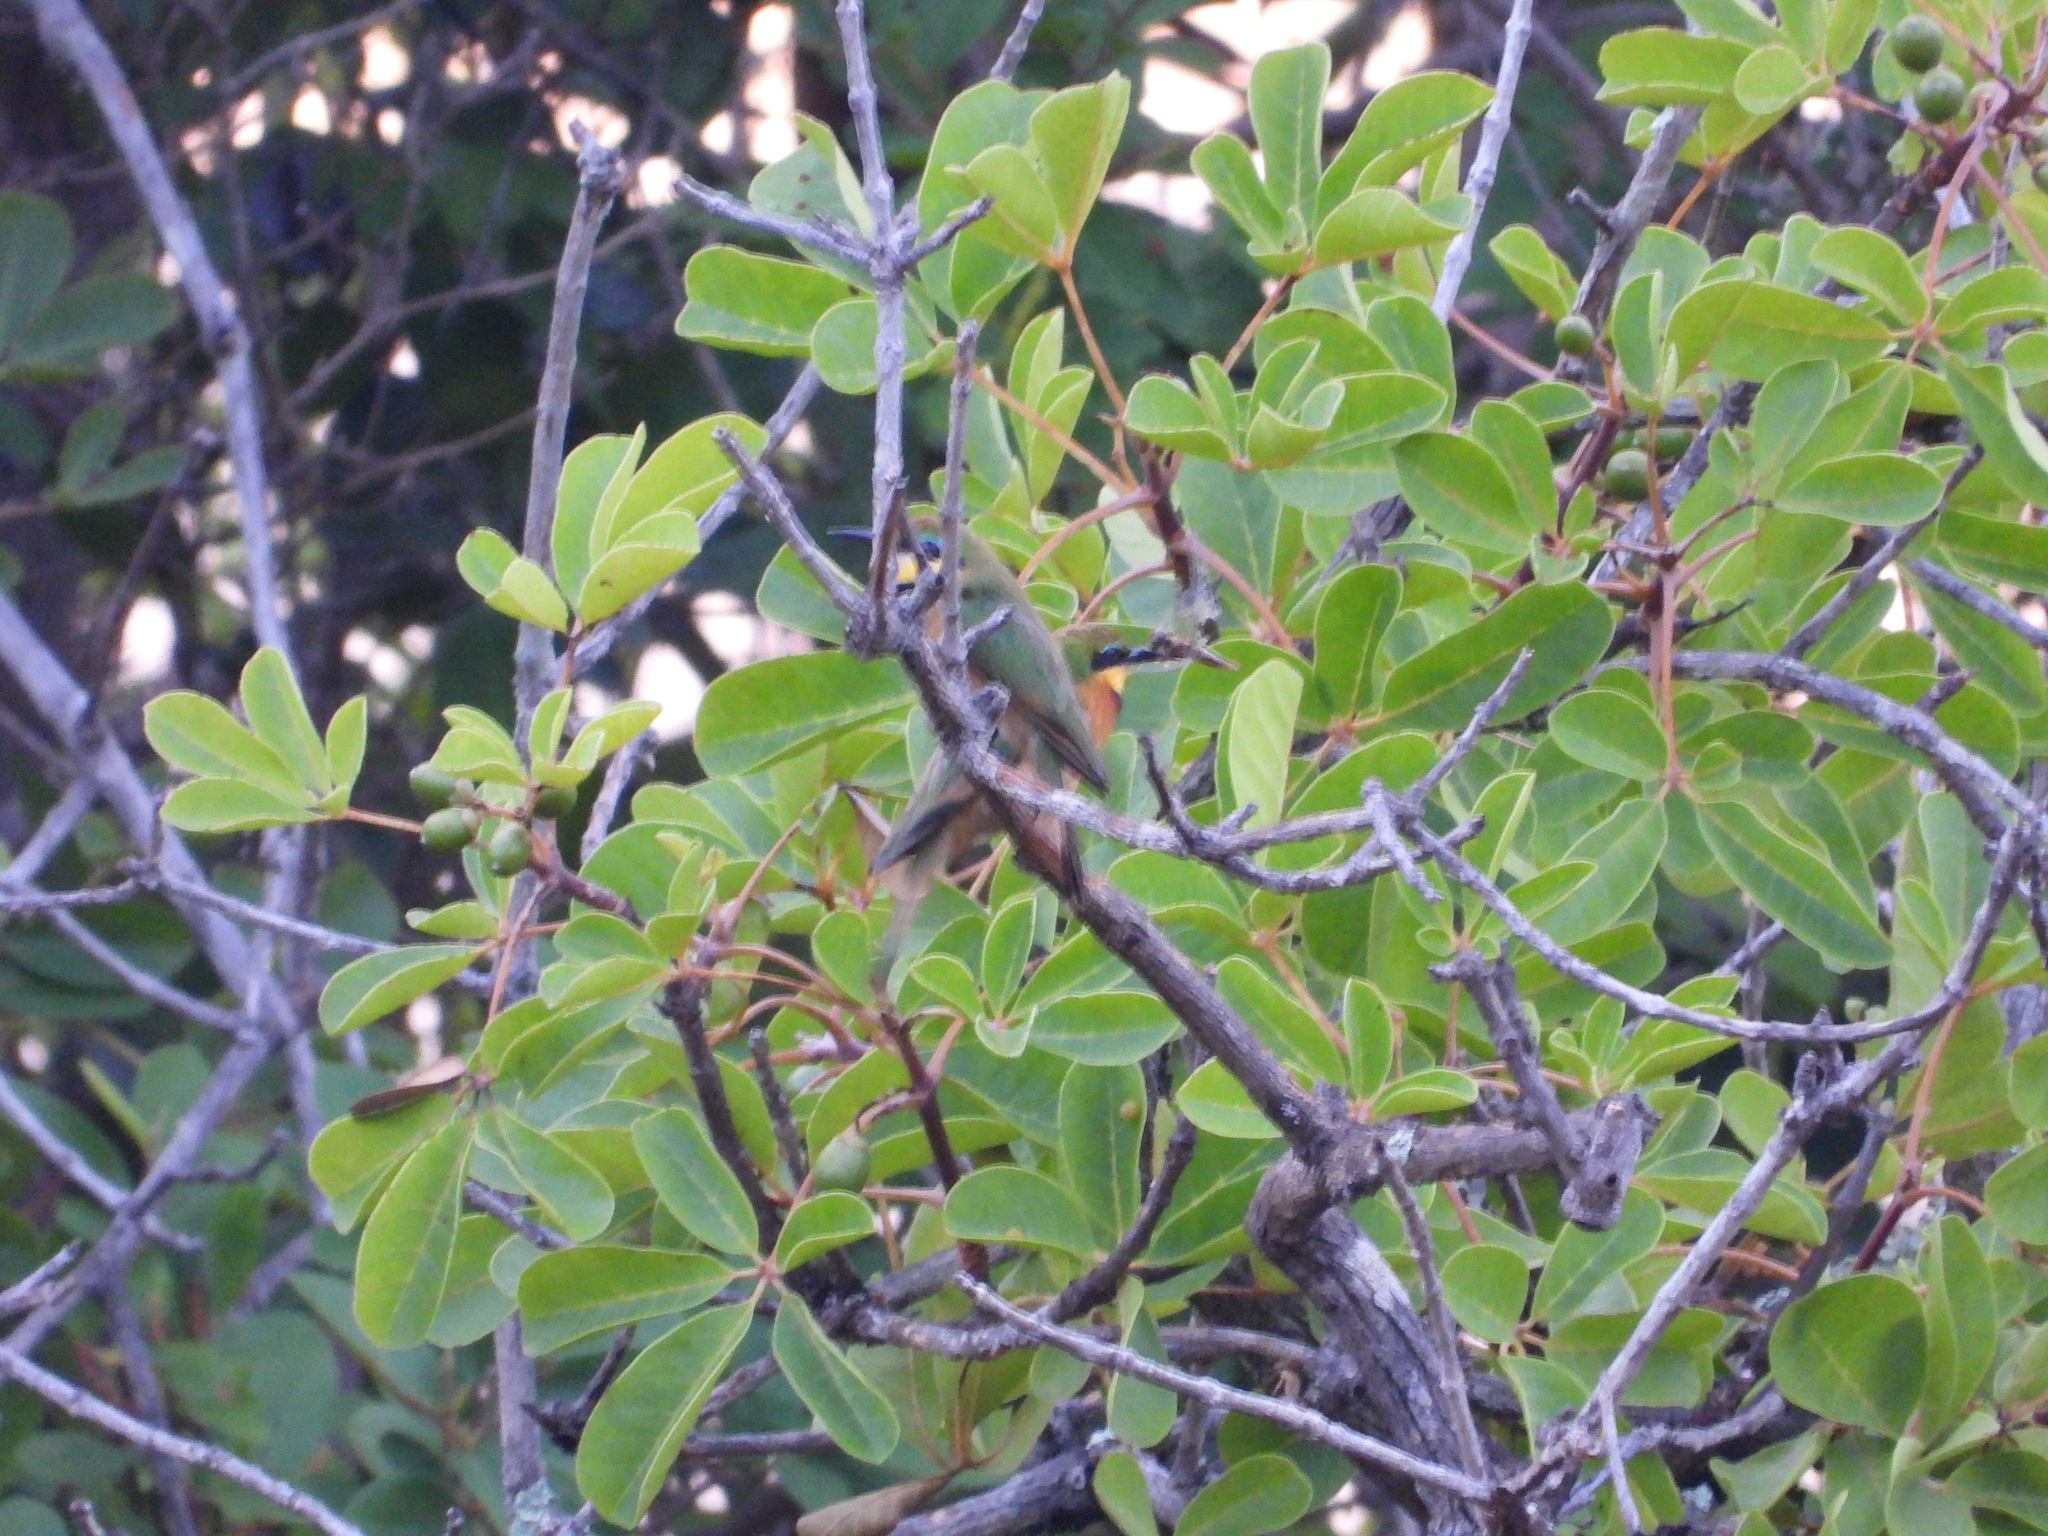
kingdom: Animalia
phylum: Chordata
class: Aves
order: Coraciiformes
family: Meropidae
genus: Merops
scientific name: Merops pusillus
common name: Little bee-eater
